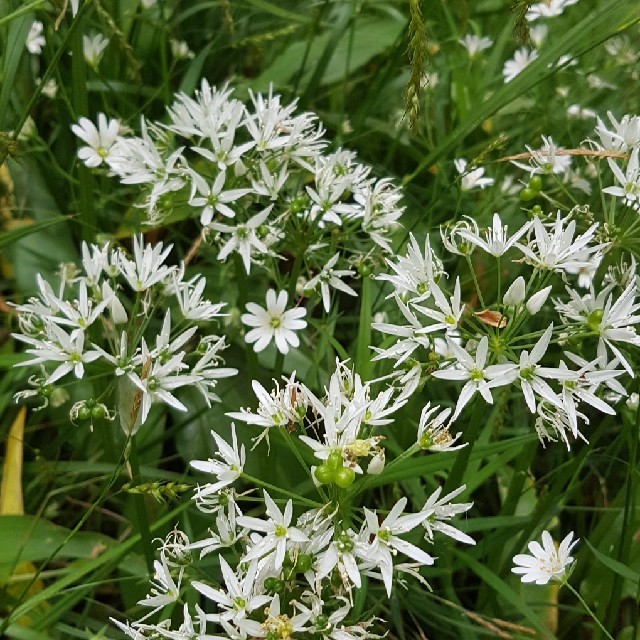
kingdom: Plantae
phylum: Tracheophyta
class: Liliopsida
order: Asparagales
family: Amaryllidaceae
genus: Allium
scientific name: Allium ursinum
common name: Ramsons
